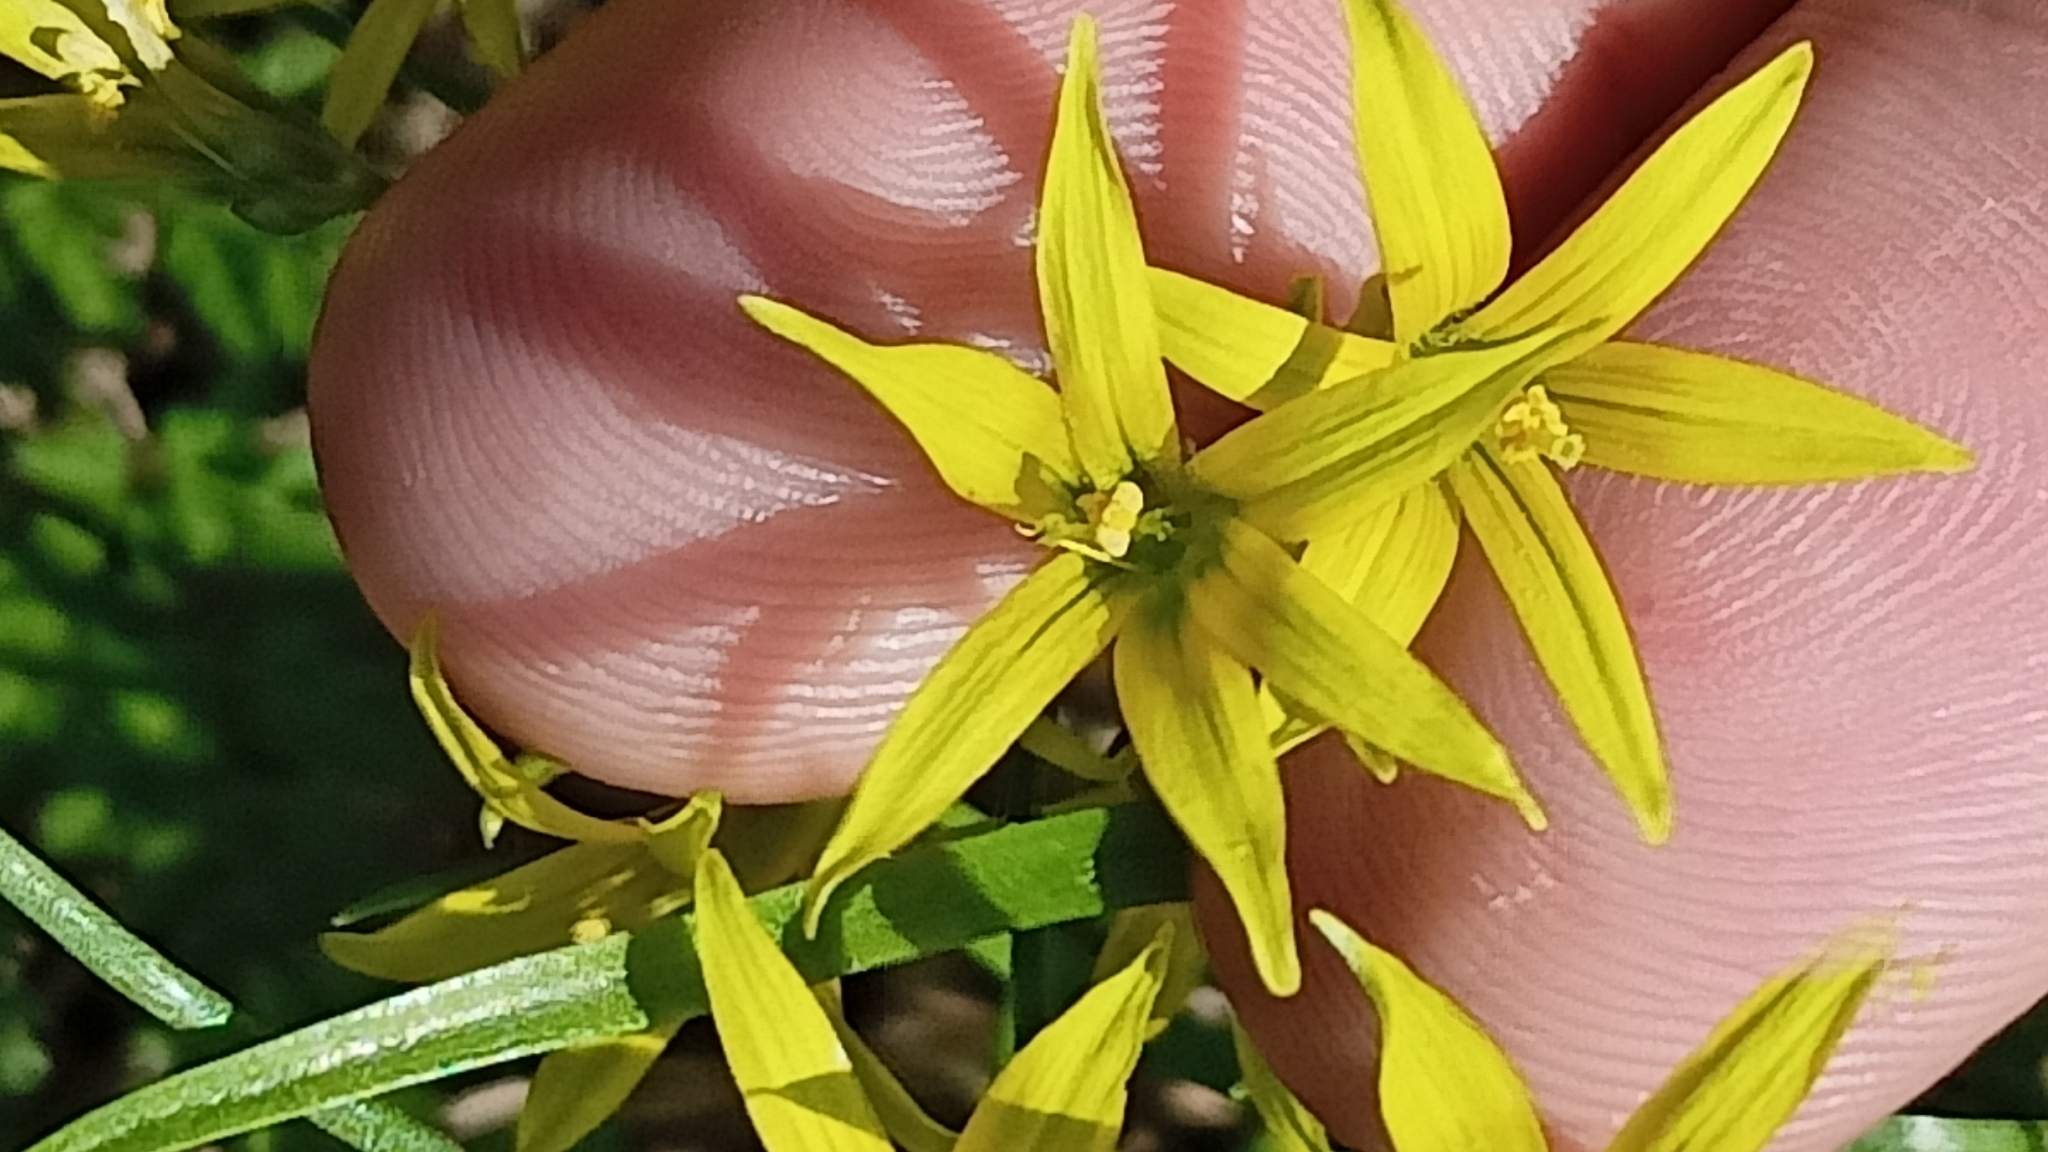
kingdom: Plantae
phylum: Tracheophyta
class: Liliopsida
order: Liliales
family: Liliaceae
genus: Gagea
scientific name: Gagea minima
